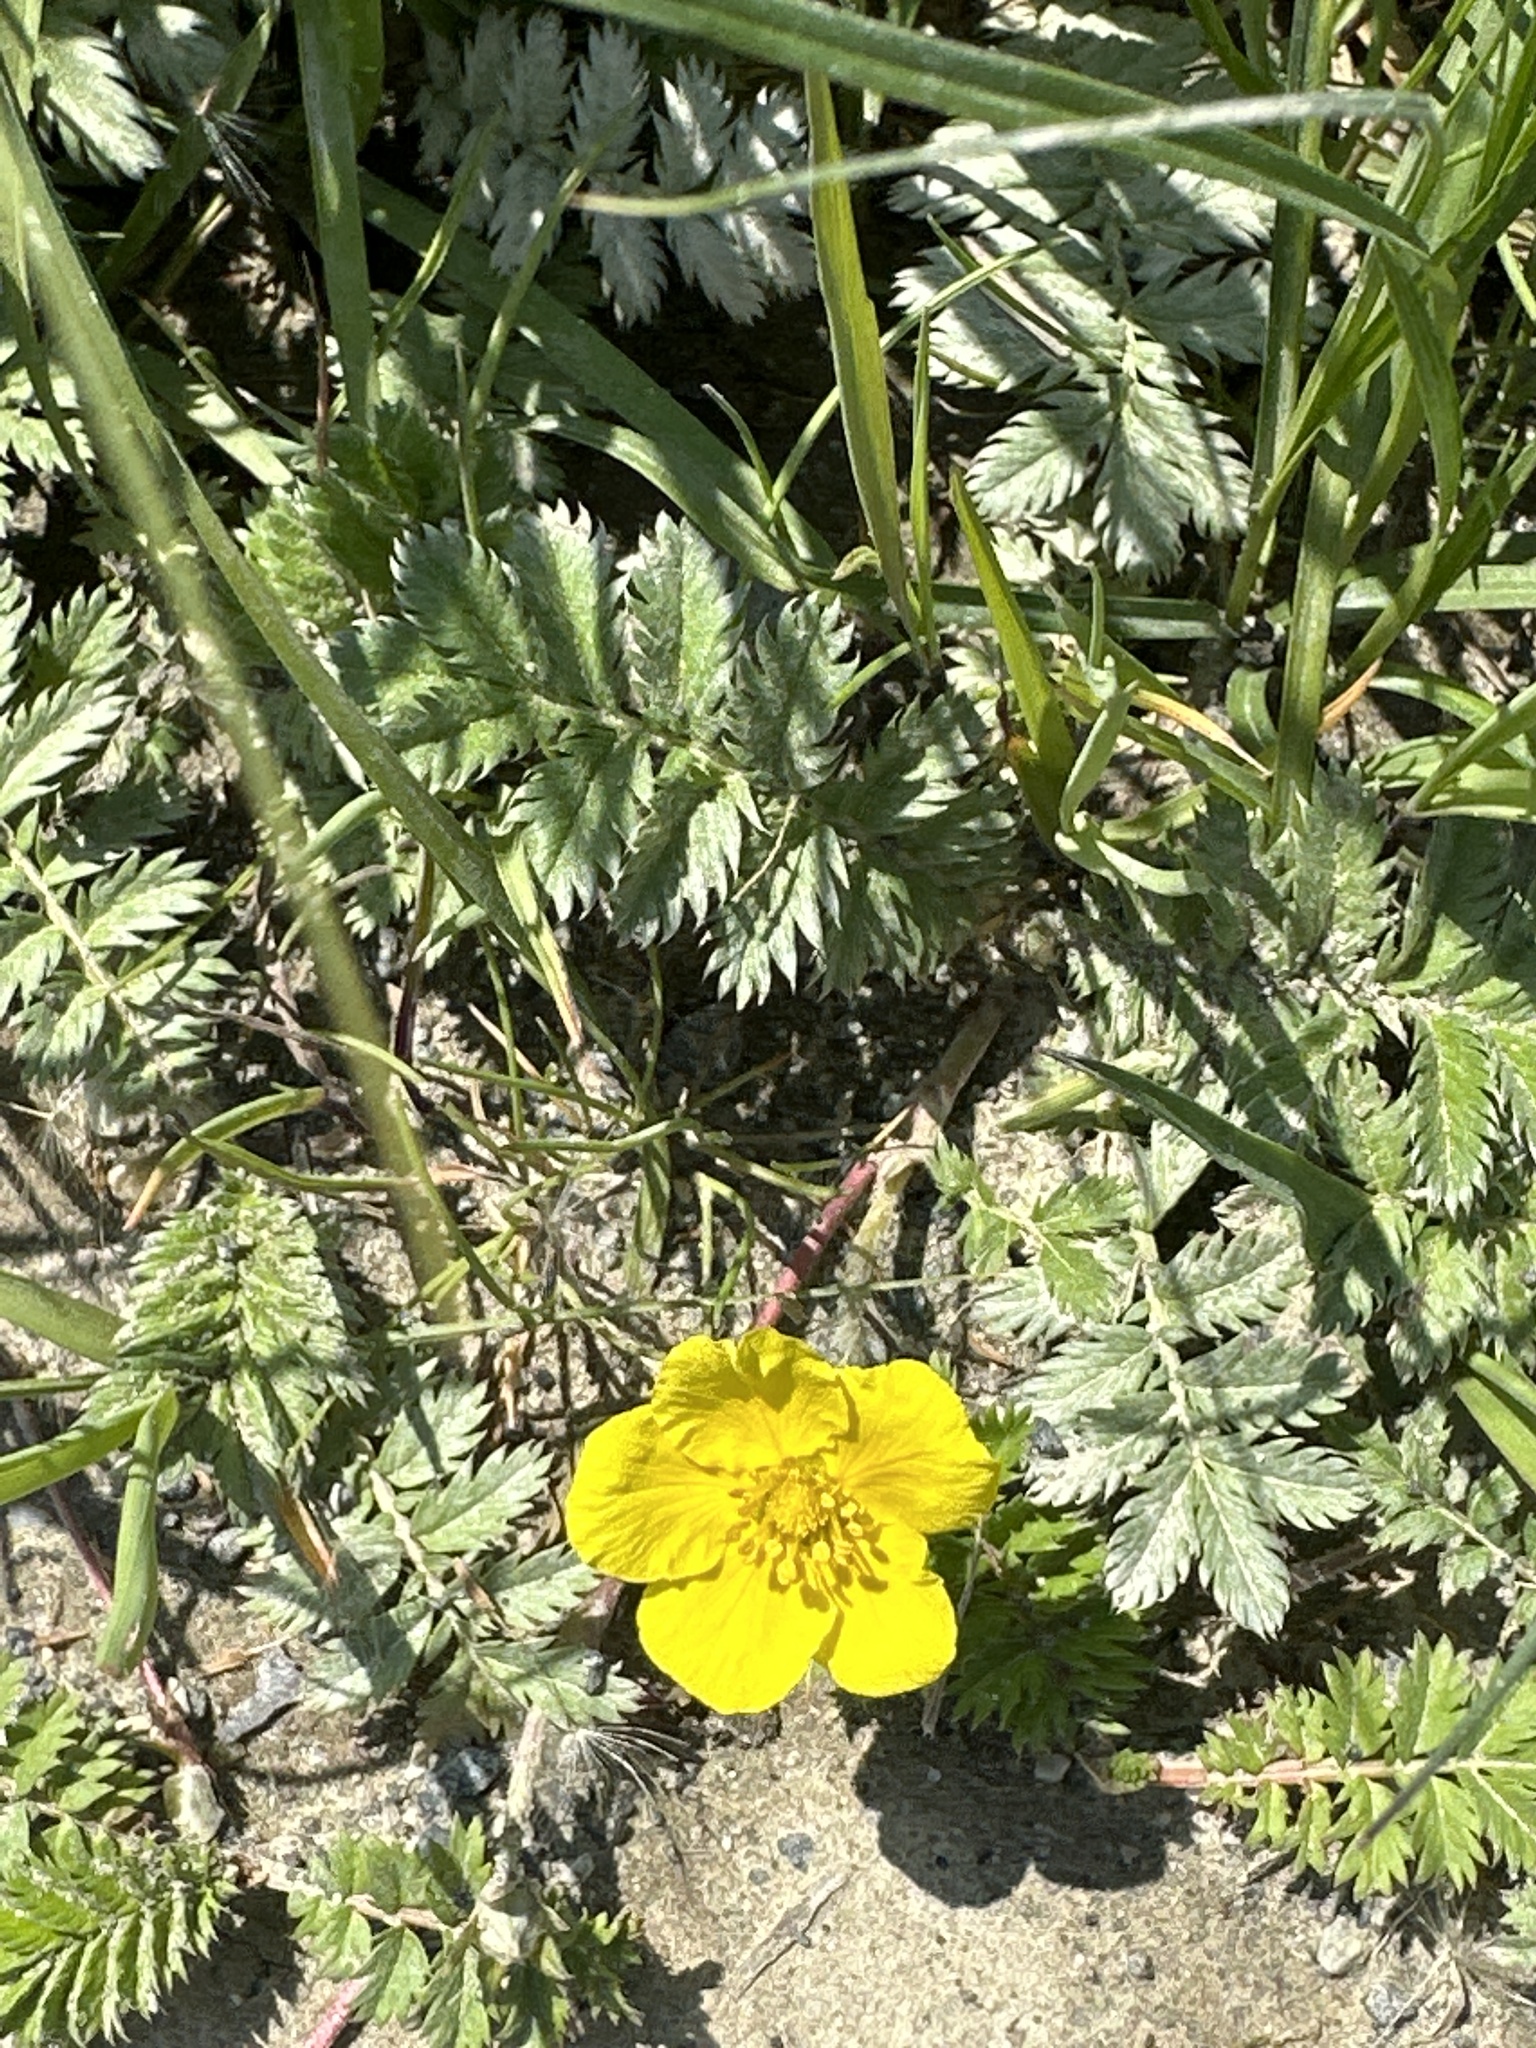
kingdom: Plantae
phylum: Tracheophyta
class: Magnoliopsida
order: Rosales
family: Rosaceae
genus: Argentina
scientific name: Argentina anserina
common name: Common silverweed
